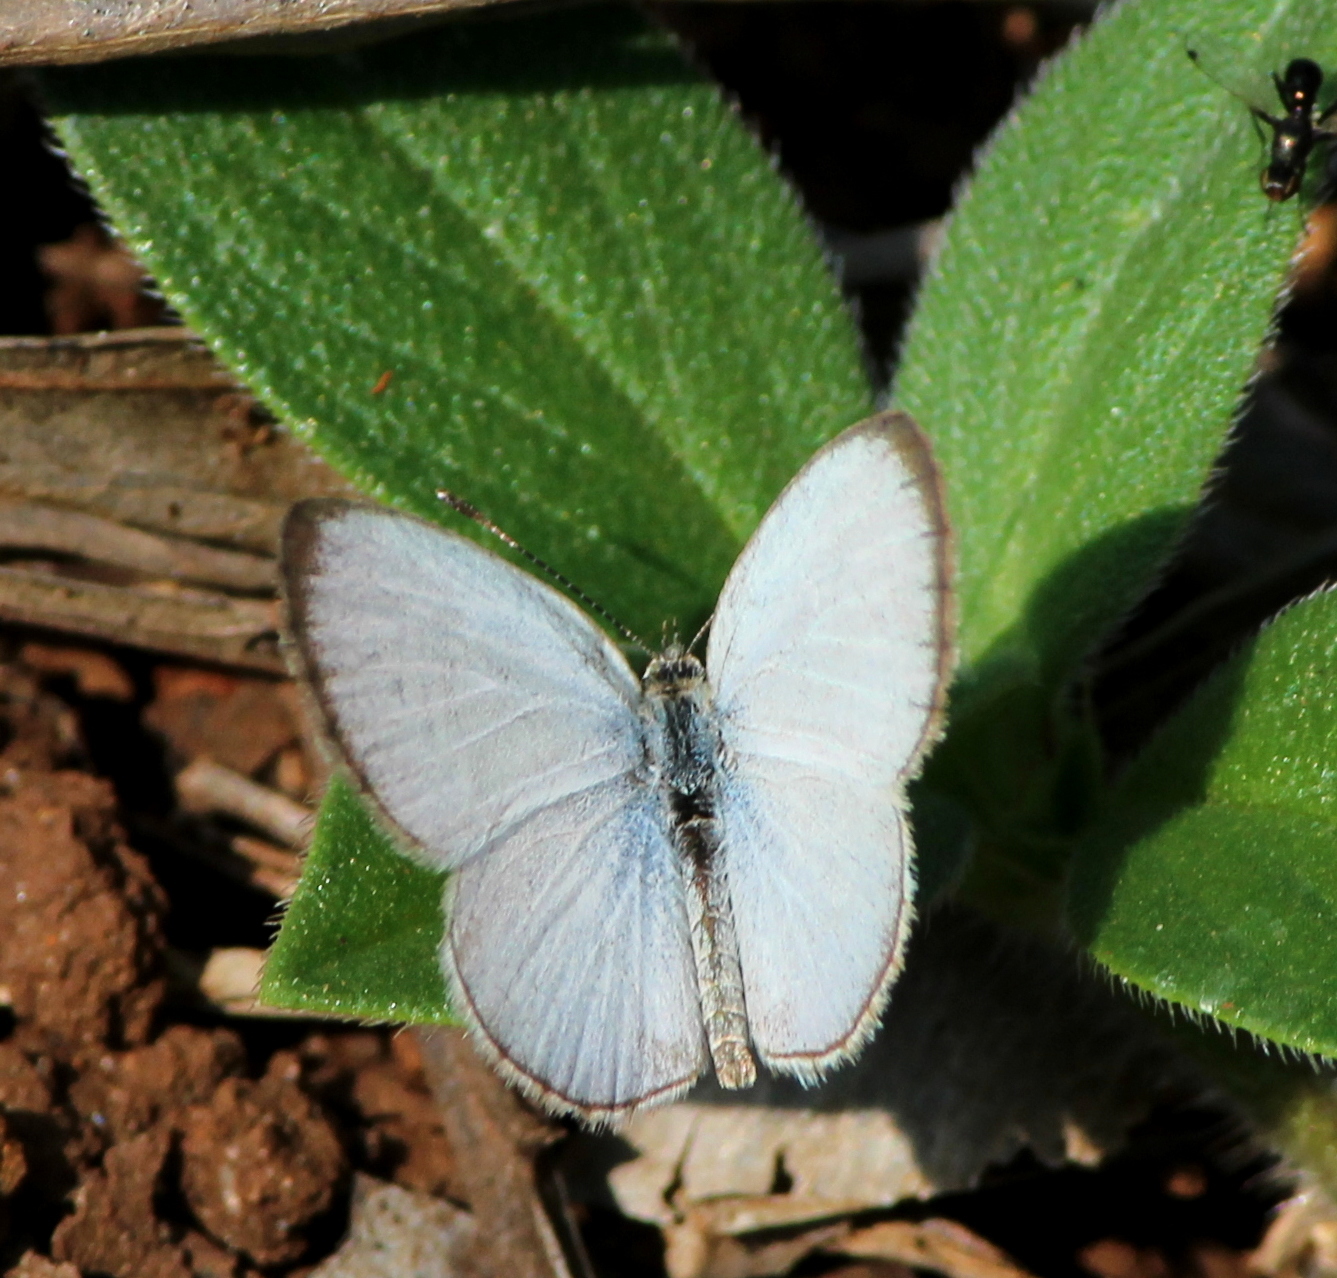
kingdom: Animalia
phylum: Arthropoda
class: Insecta
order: Lepidoptera
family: Lycaenidae
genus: Pseudozizeeria
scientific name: Pseudozizeeria maha
